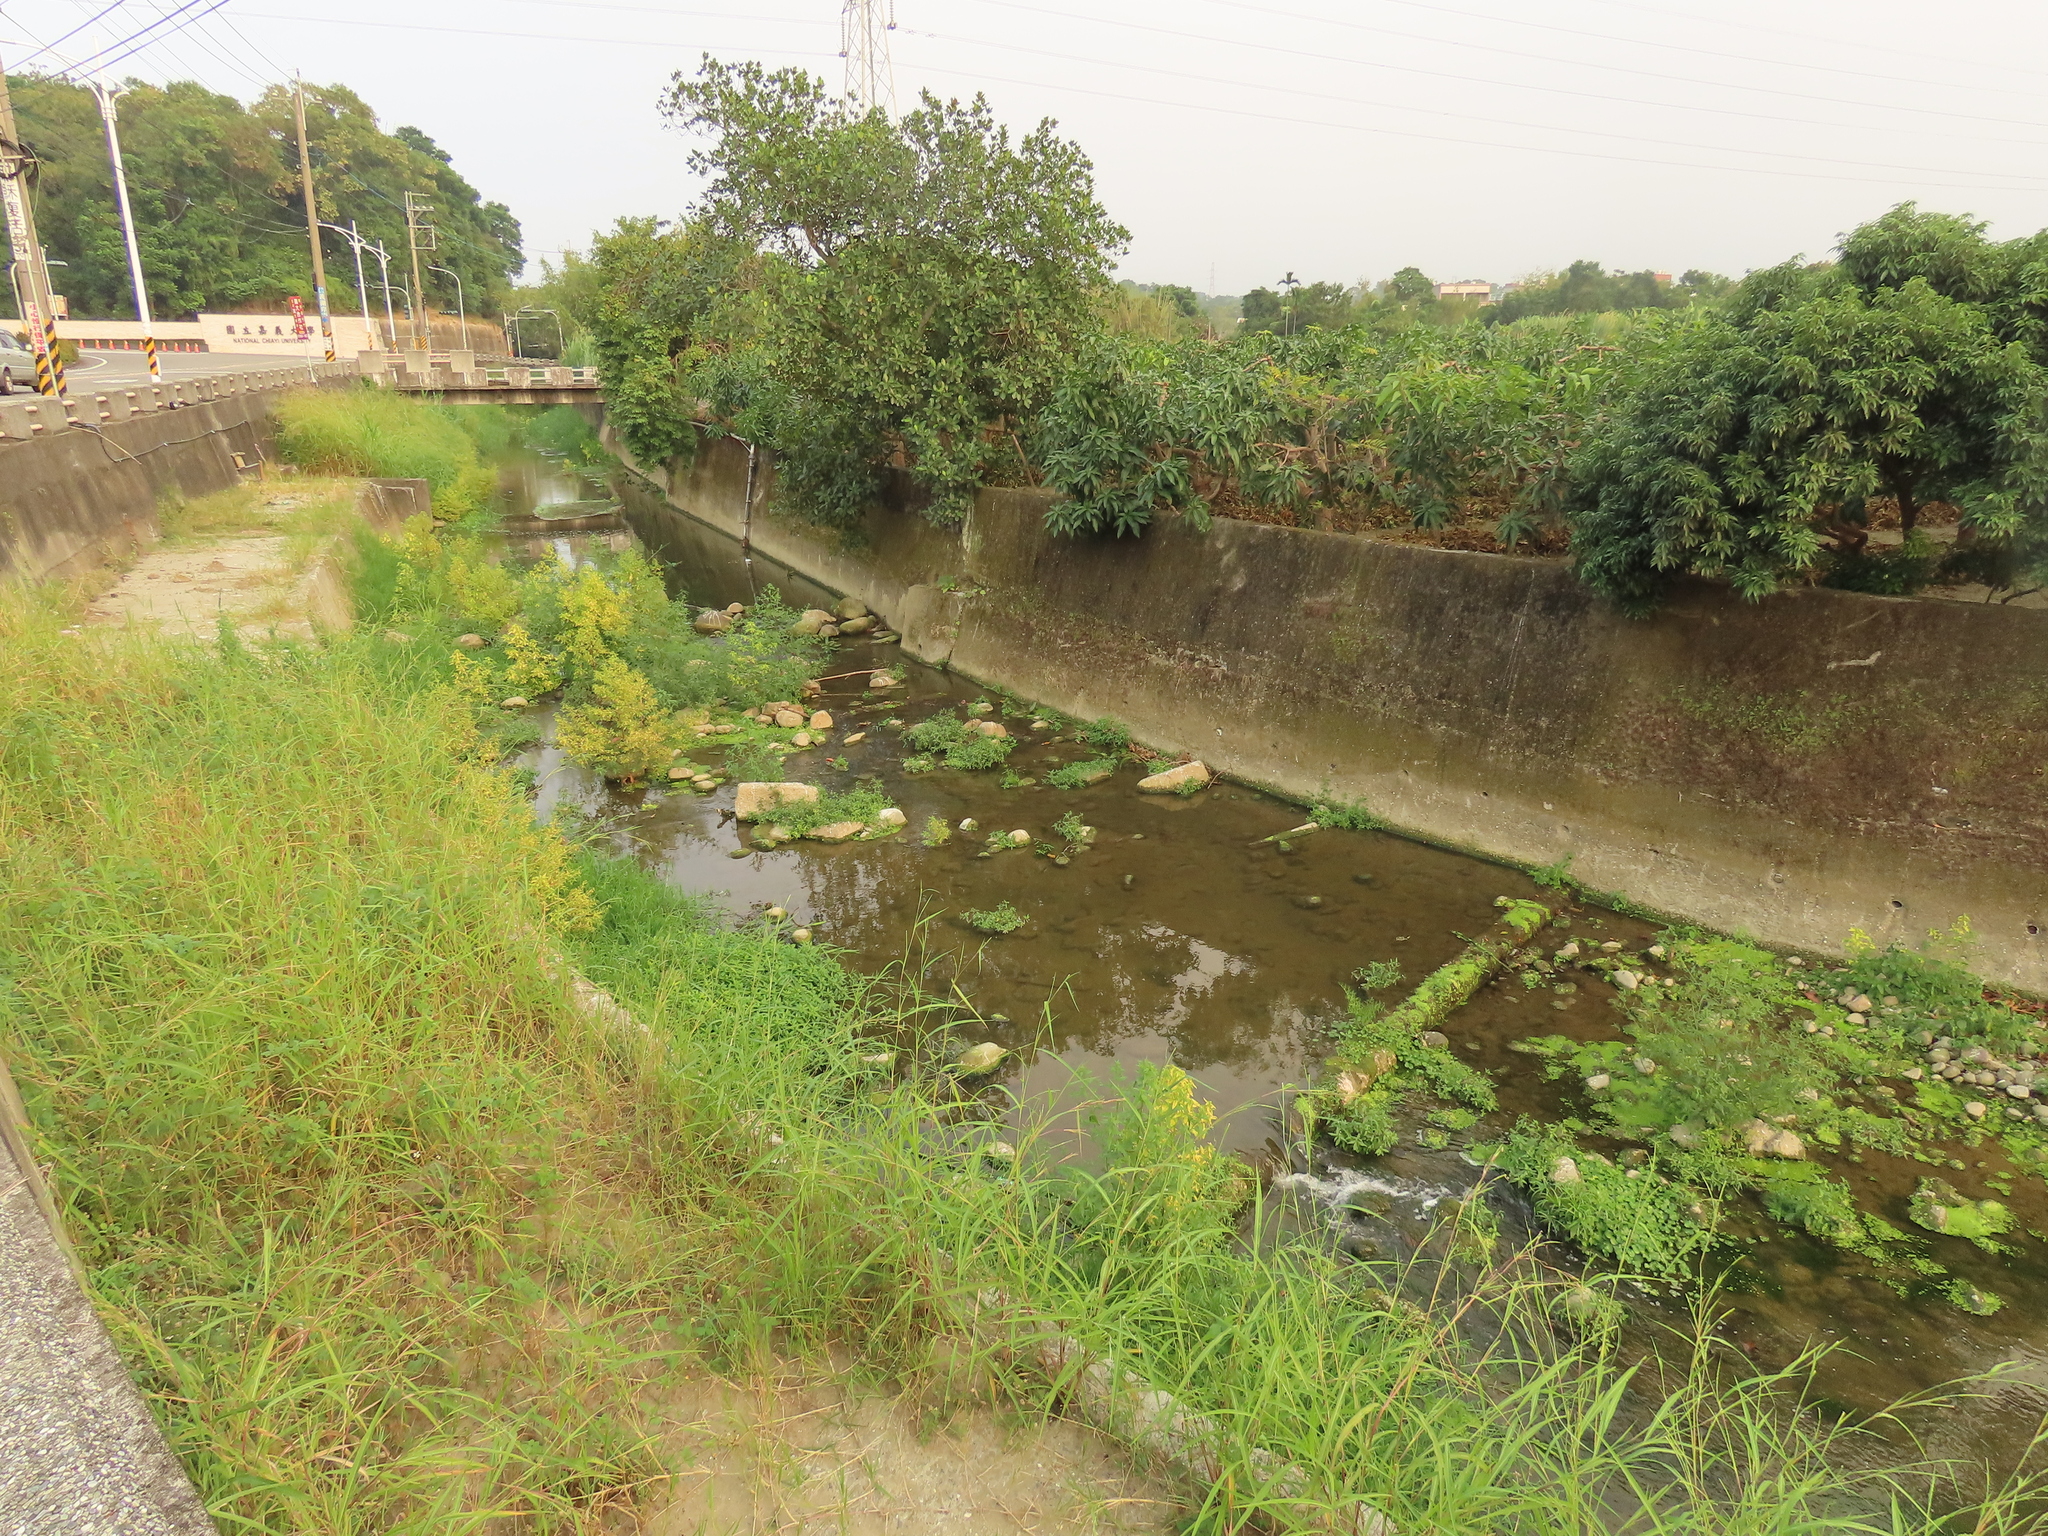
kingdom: Plantae
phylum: Tracheophyta
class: Polypodiopsida
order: Polypodiales
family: Pteridaceae
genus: Ceratopteris
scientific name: Ceratopteris thalictroides
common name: Water fern
